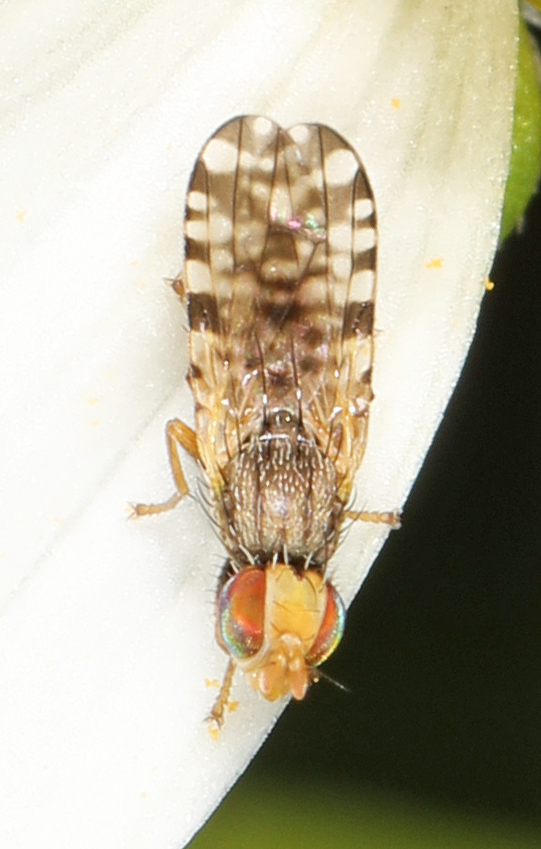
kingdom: Animalia
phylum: Arthropoda
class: Insecta
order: Diptera
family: Tephritidae
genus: Dioxyna
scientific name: Dioxyna picciola
